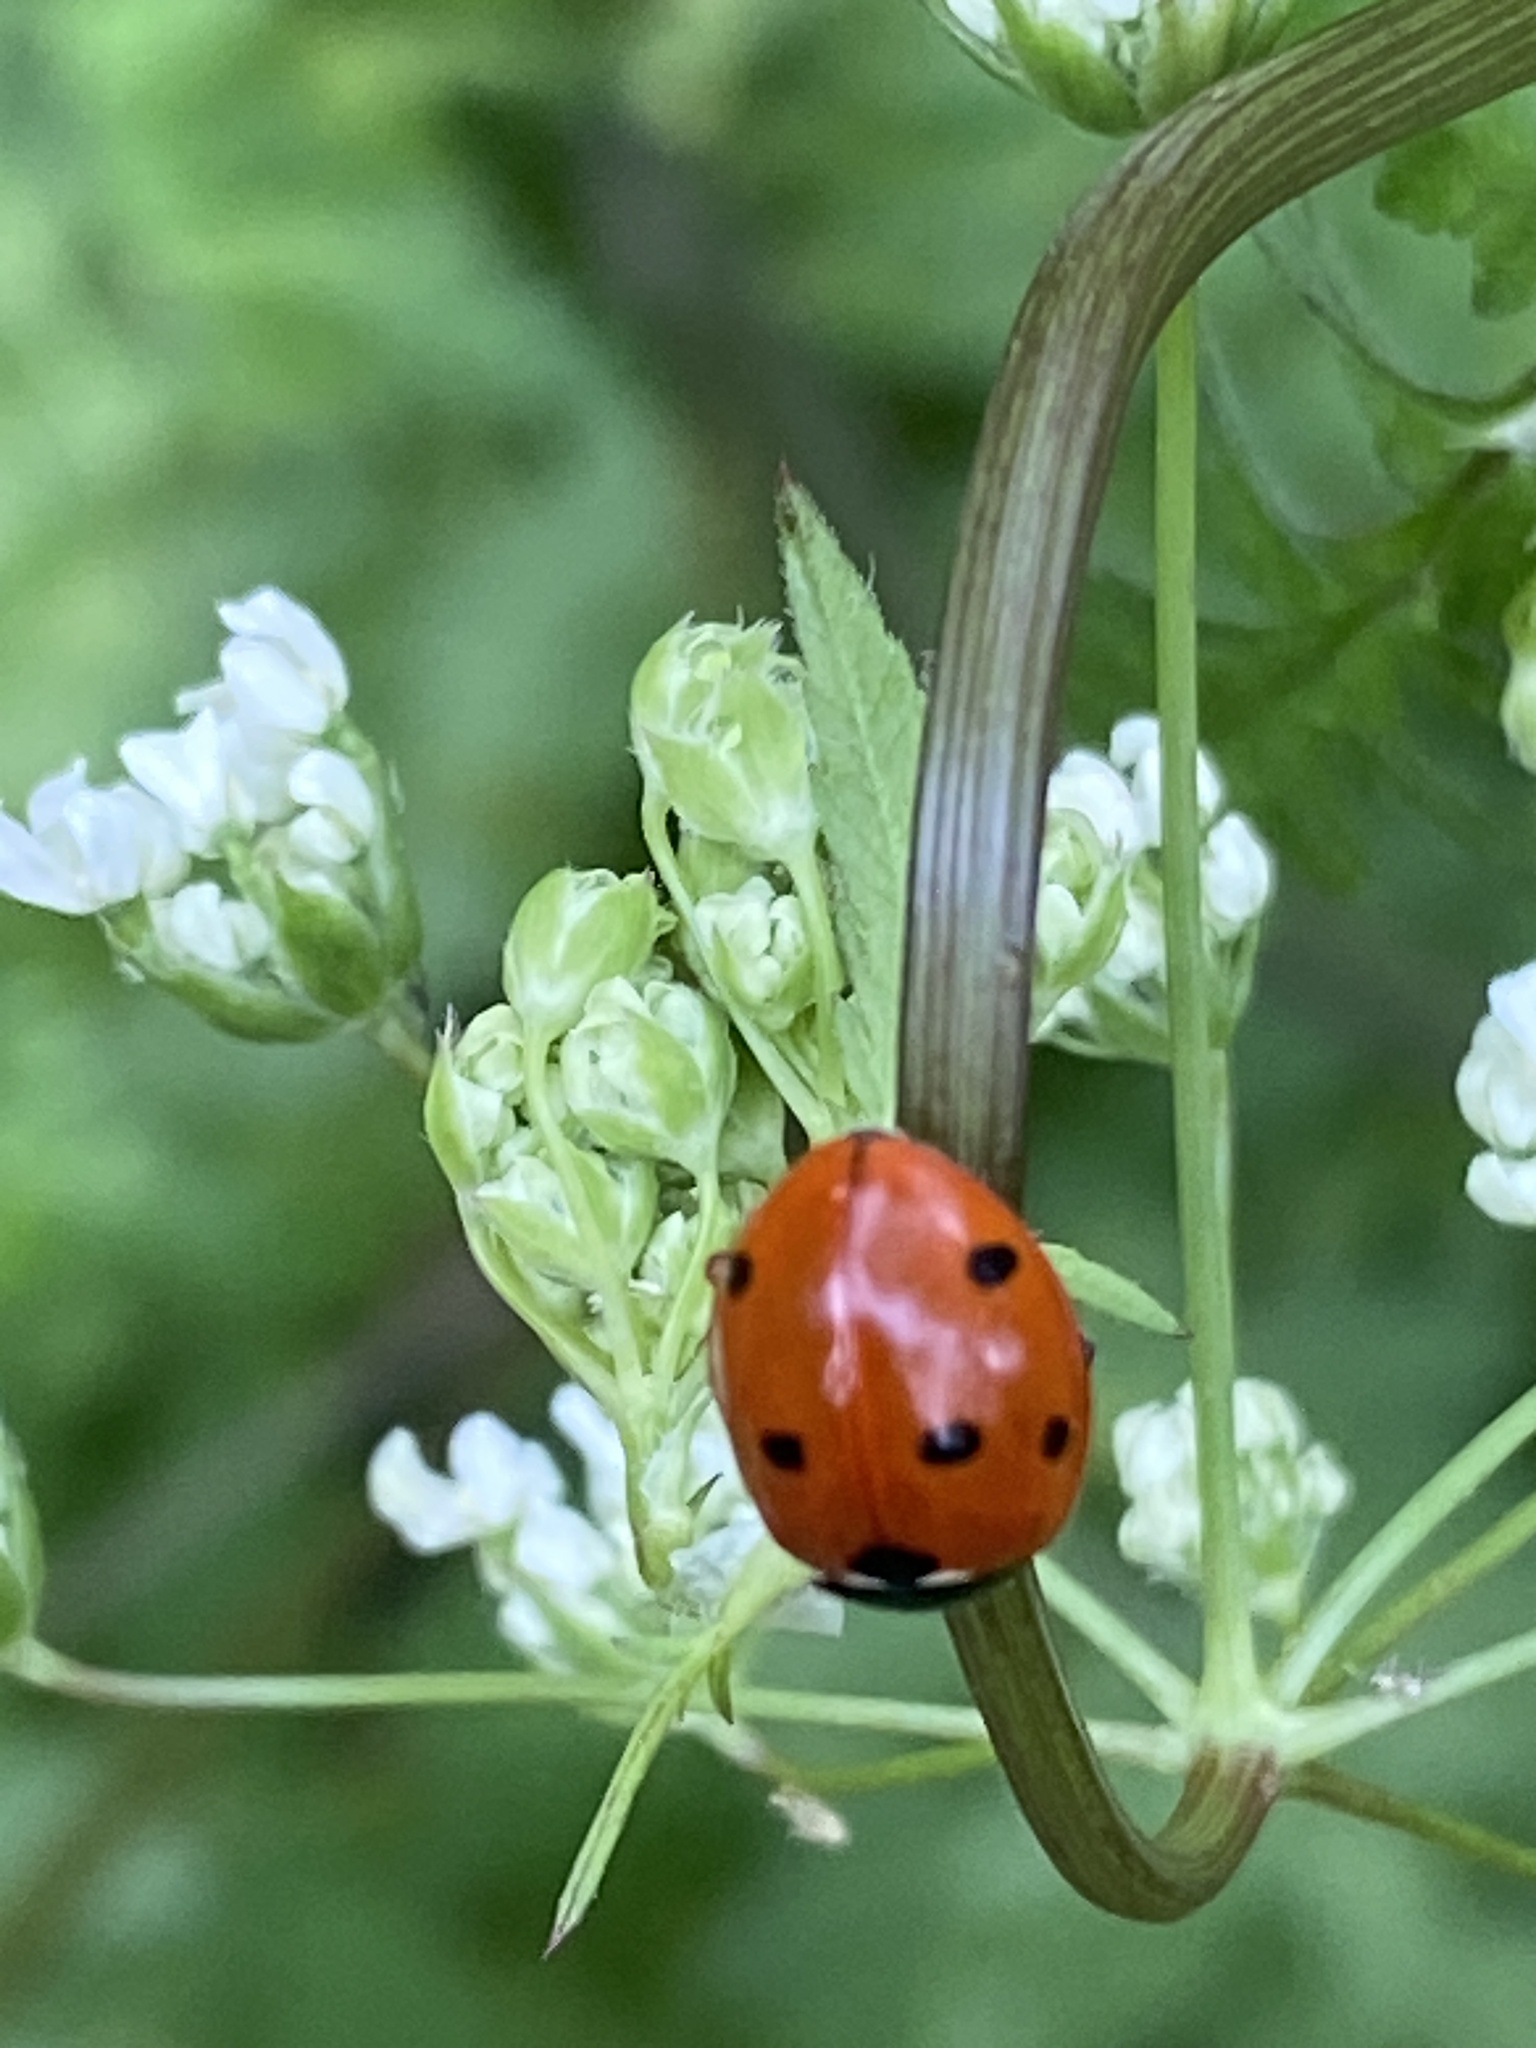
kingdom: Animalia
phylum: Arthropoda
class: Insecta
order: Coleoptera
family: Coccinellidae
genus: Coccinella
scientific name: Coccinella septempunctata
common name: Sevenspotted lady beetle
